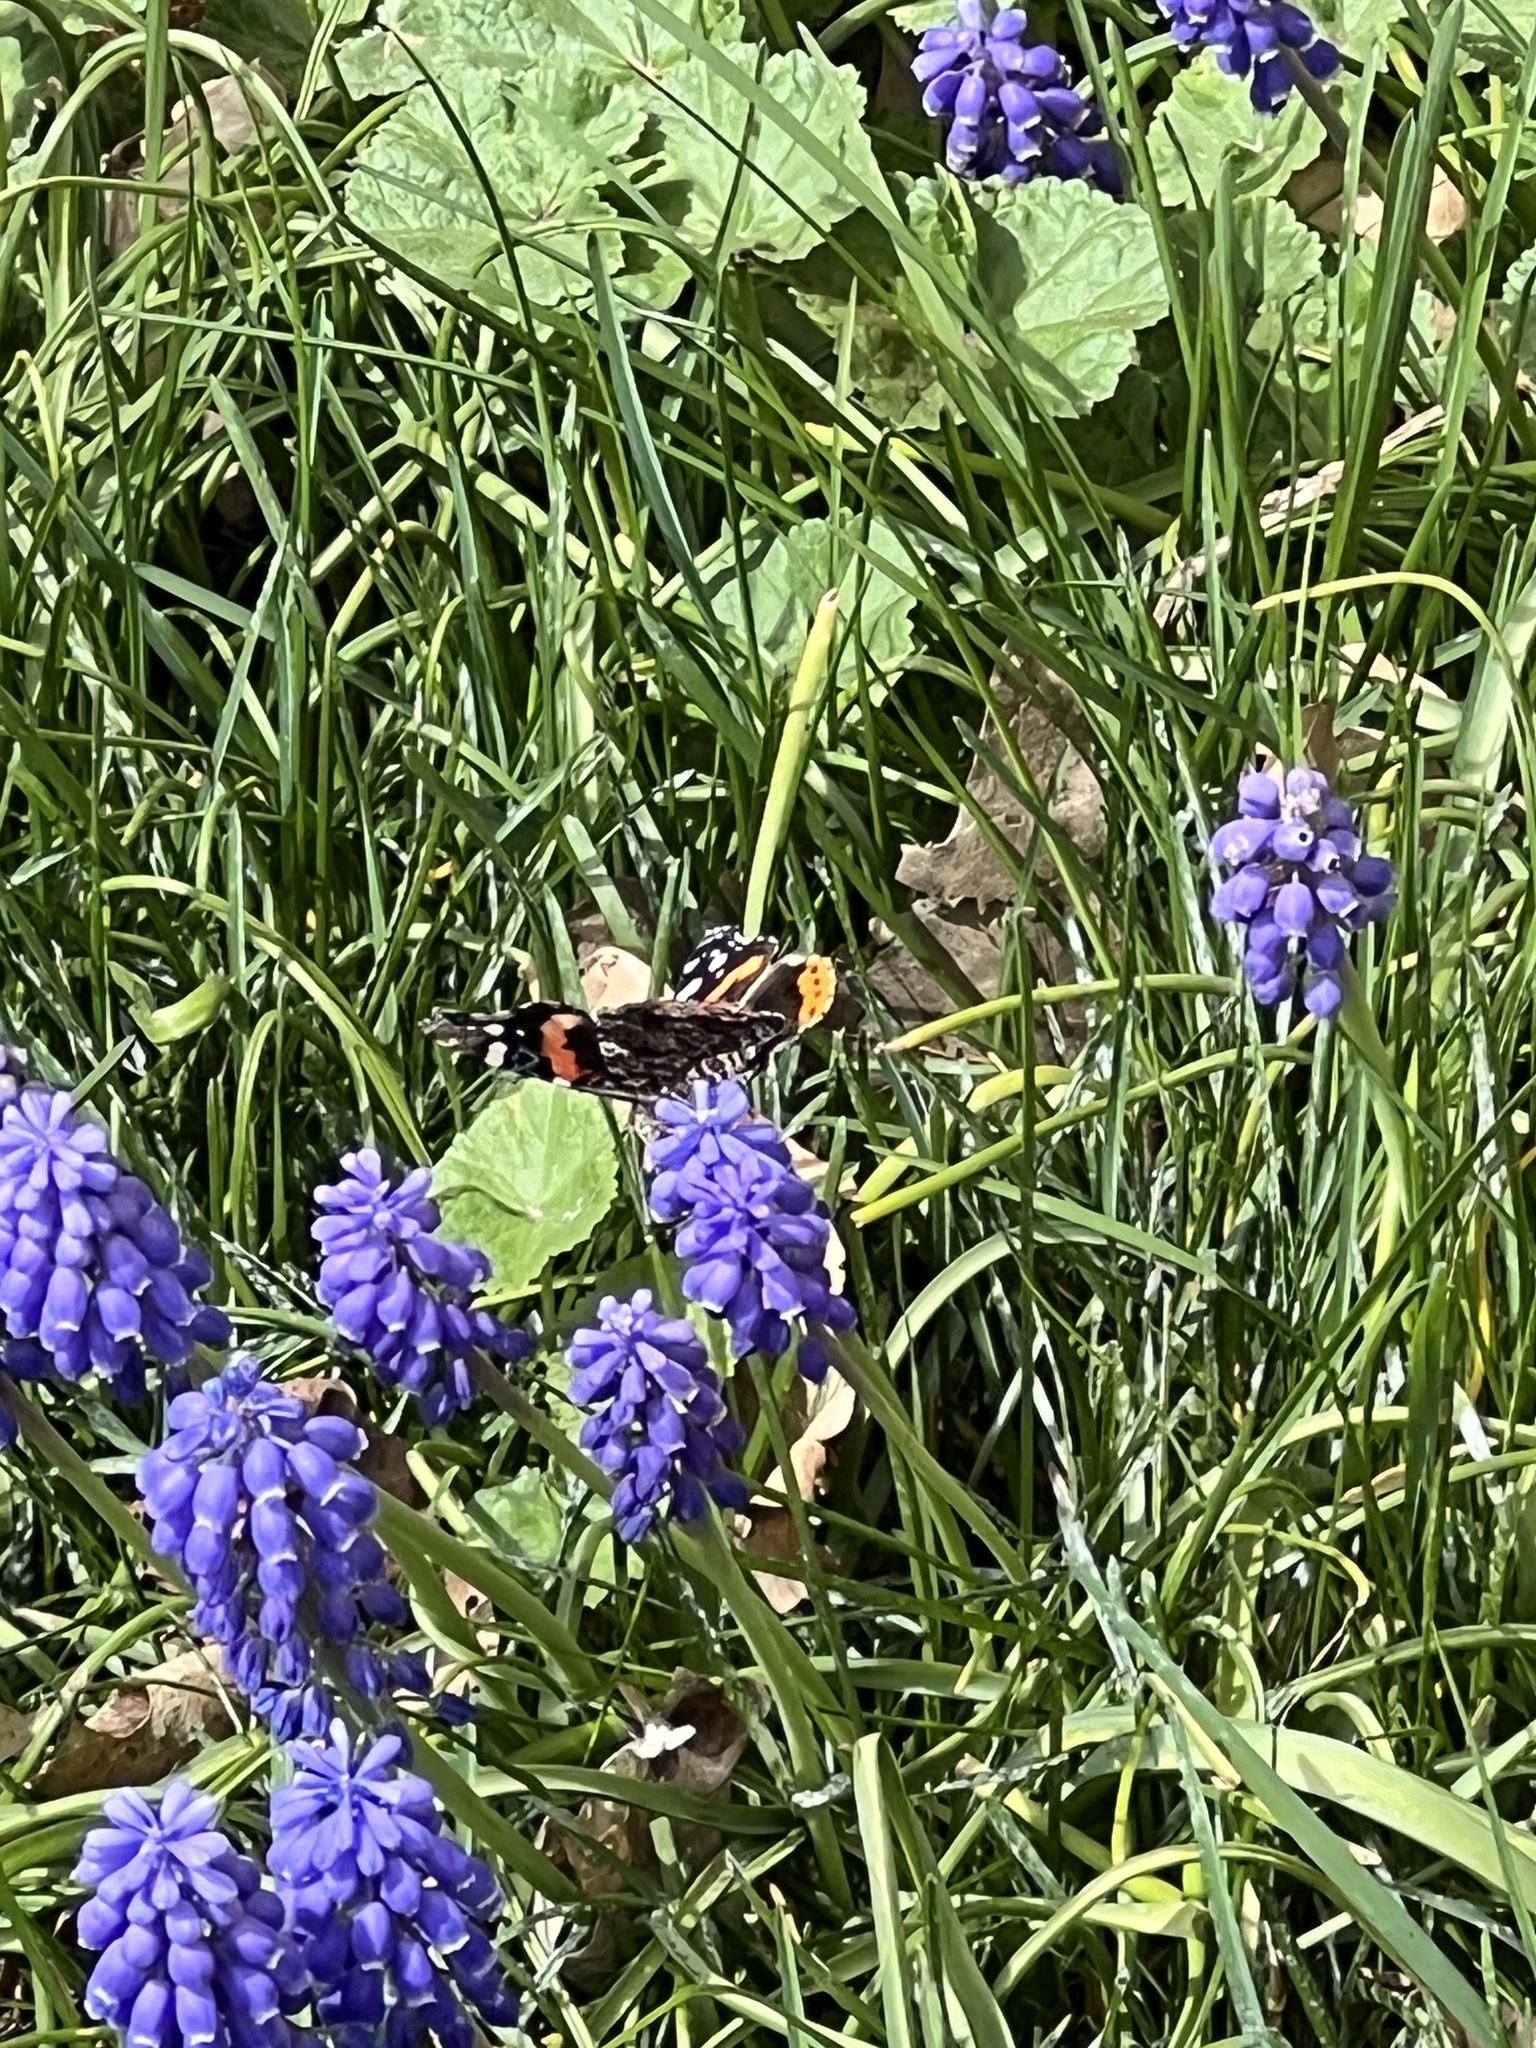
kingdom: Animalia
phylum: Arthropoda
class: Insecta
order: Lepidoptera
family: Nymphalidae
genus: Vanessa
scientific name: Vanessa atalanta
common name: Red admiral
